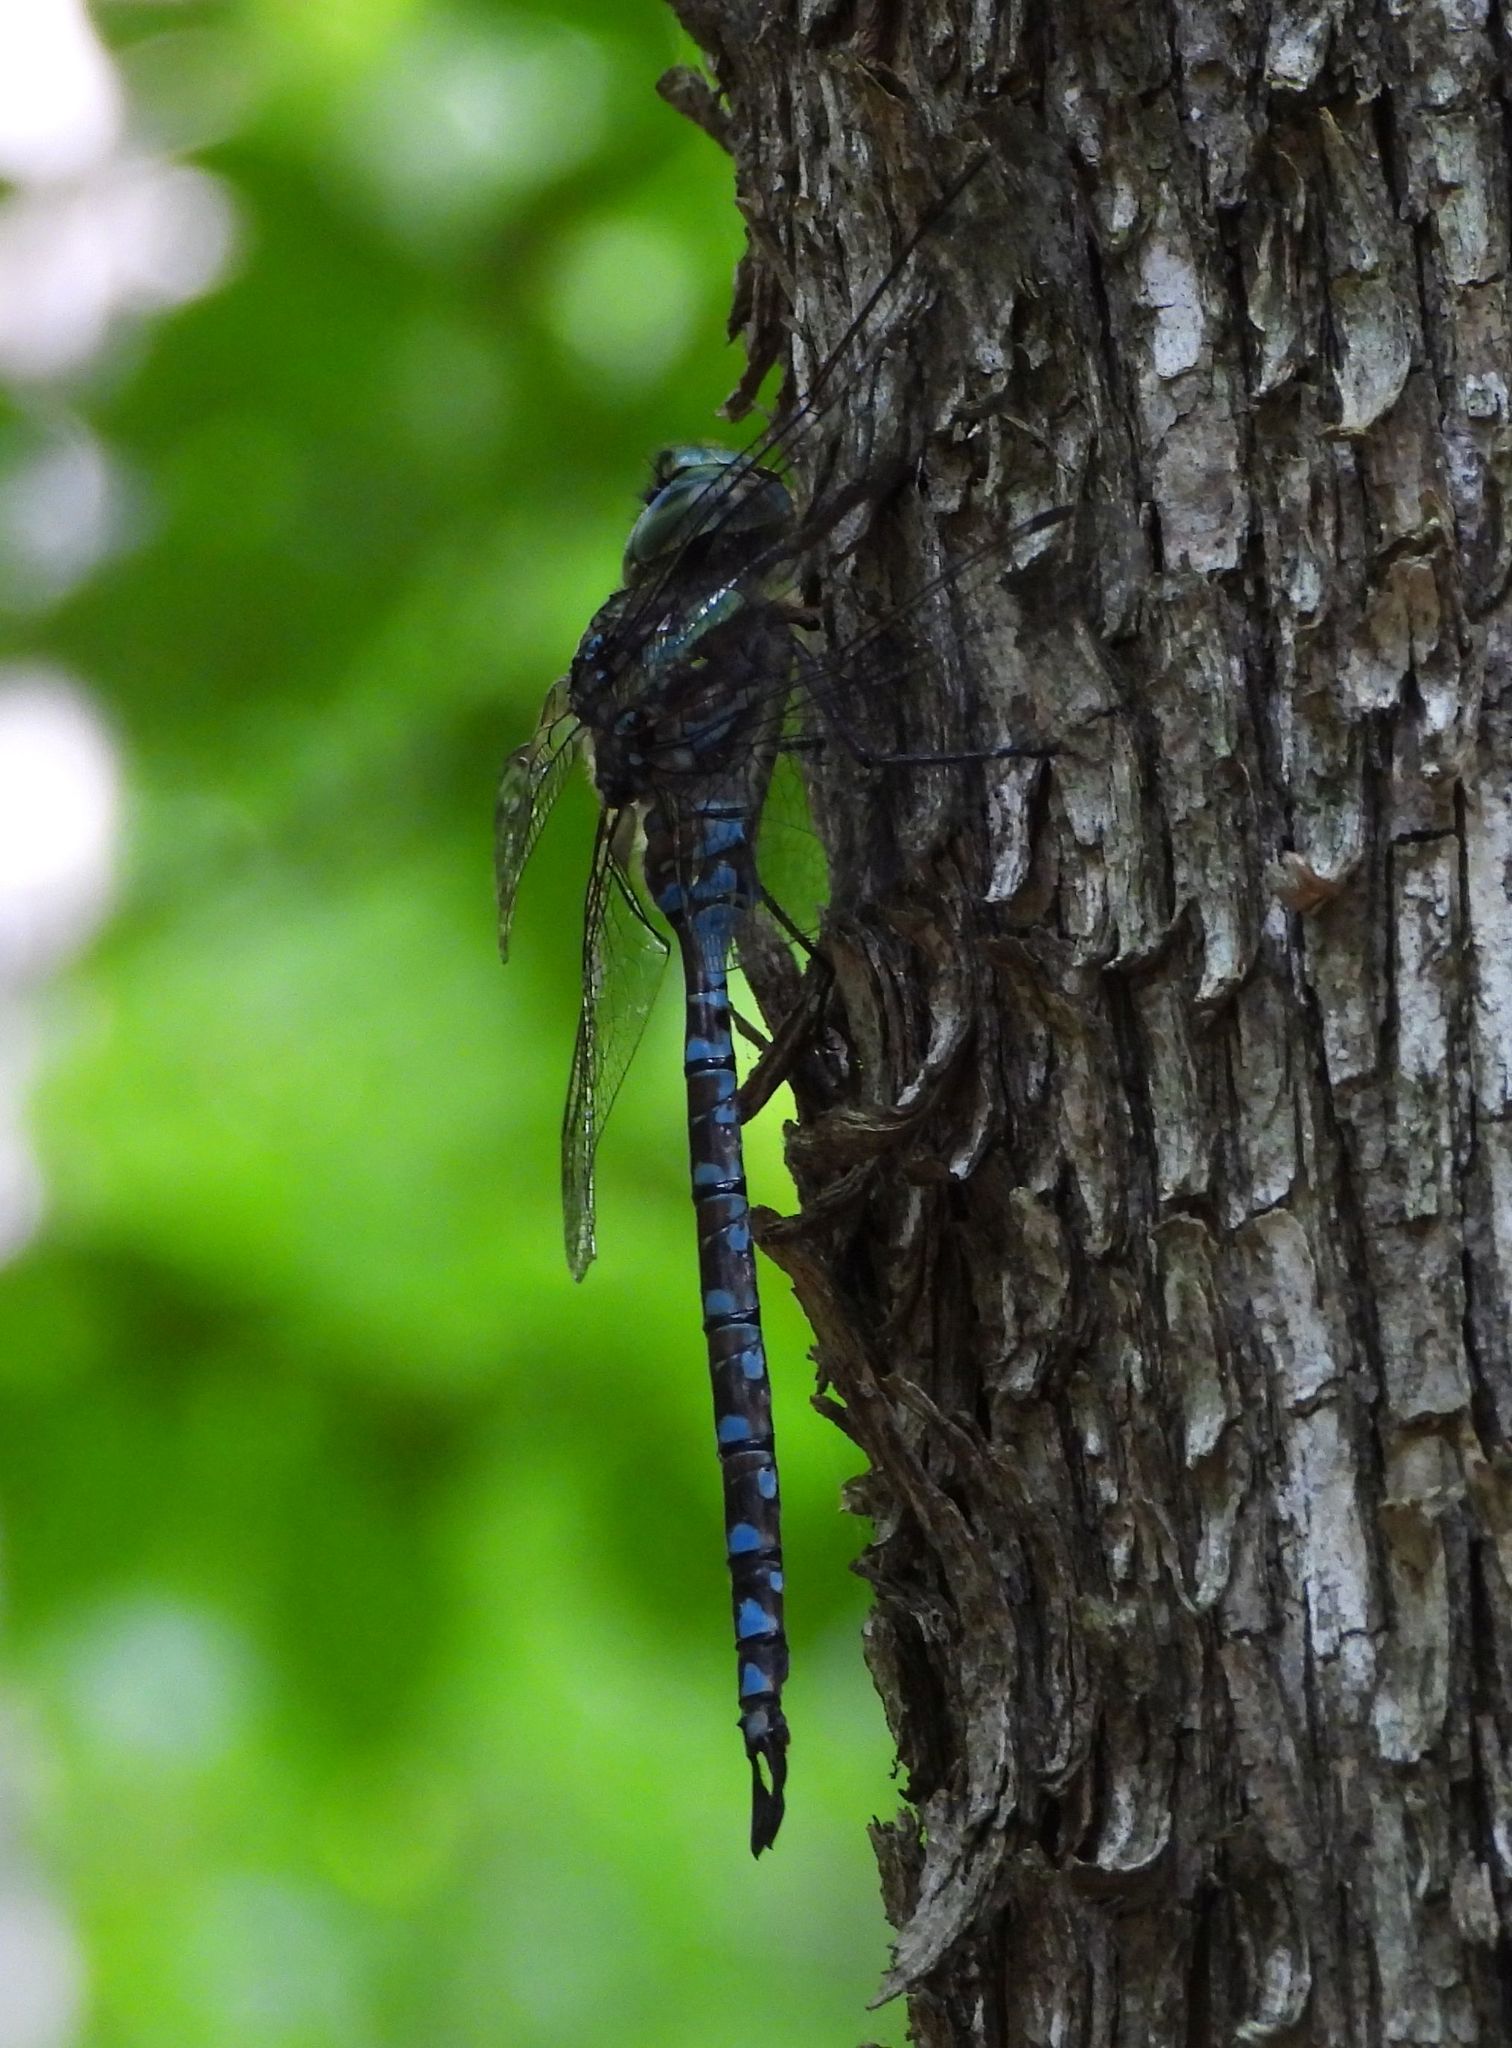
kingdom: Animalia
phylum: Arthropoda
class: Insecta
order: Odonata
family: Aeshnidae
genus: Aeshna
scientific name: Aeshna canadensis
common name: Canada darner
